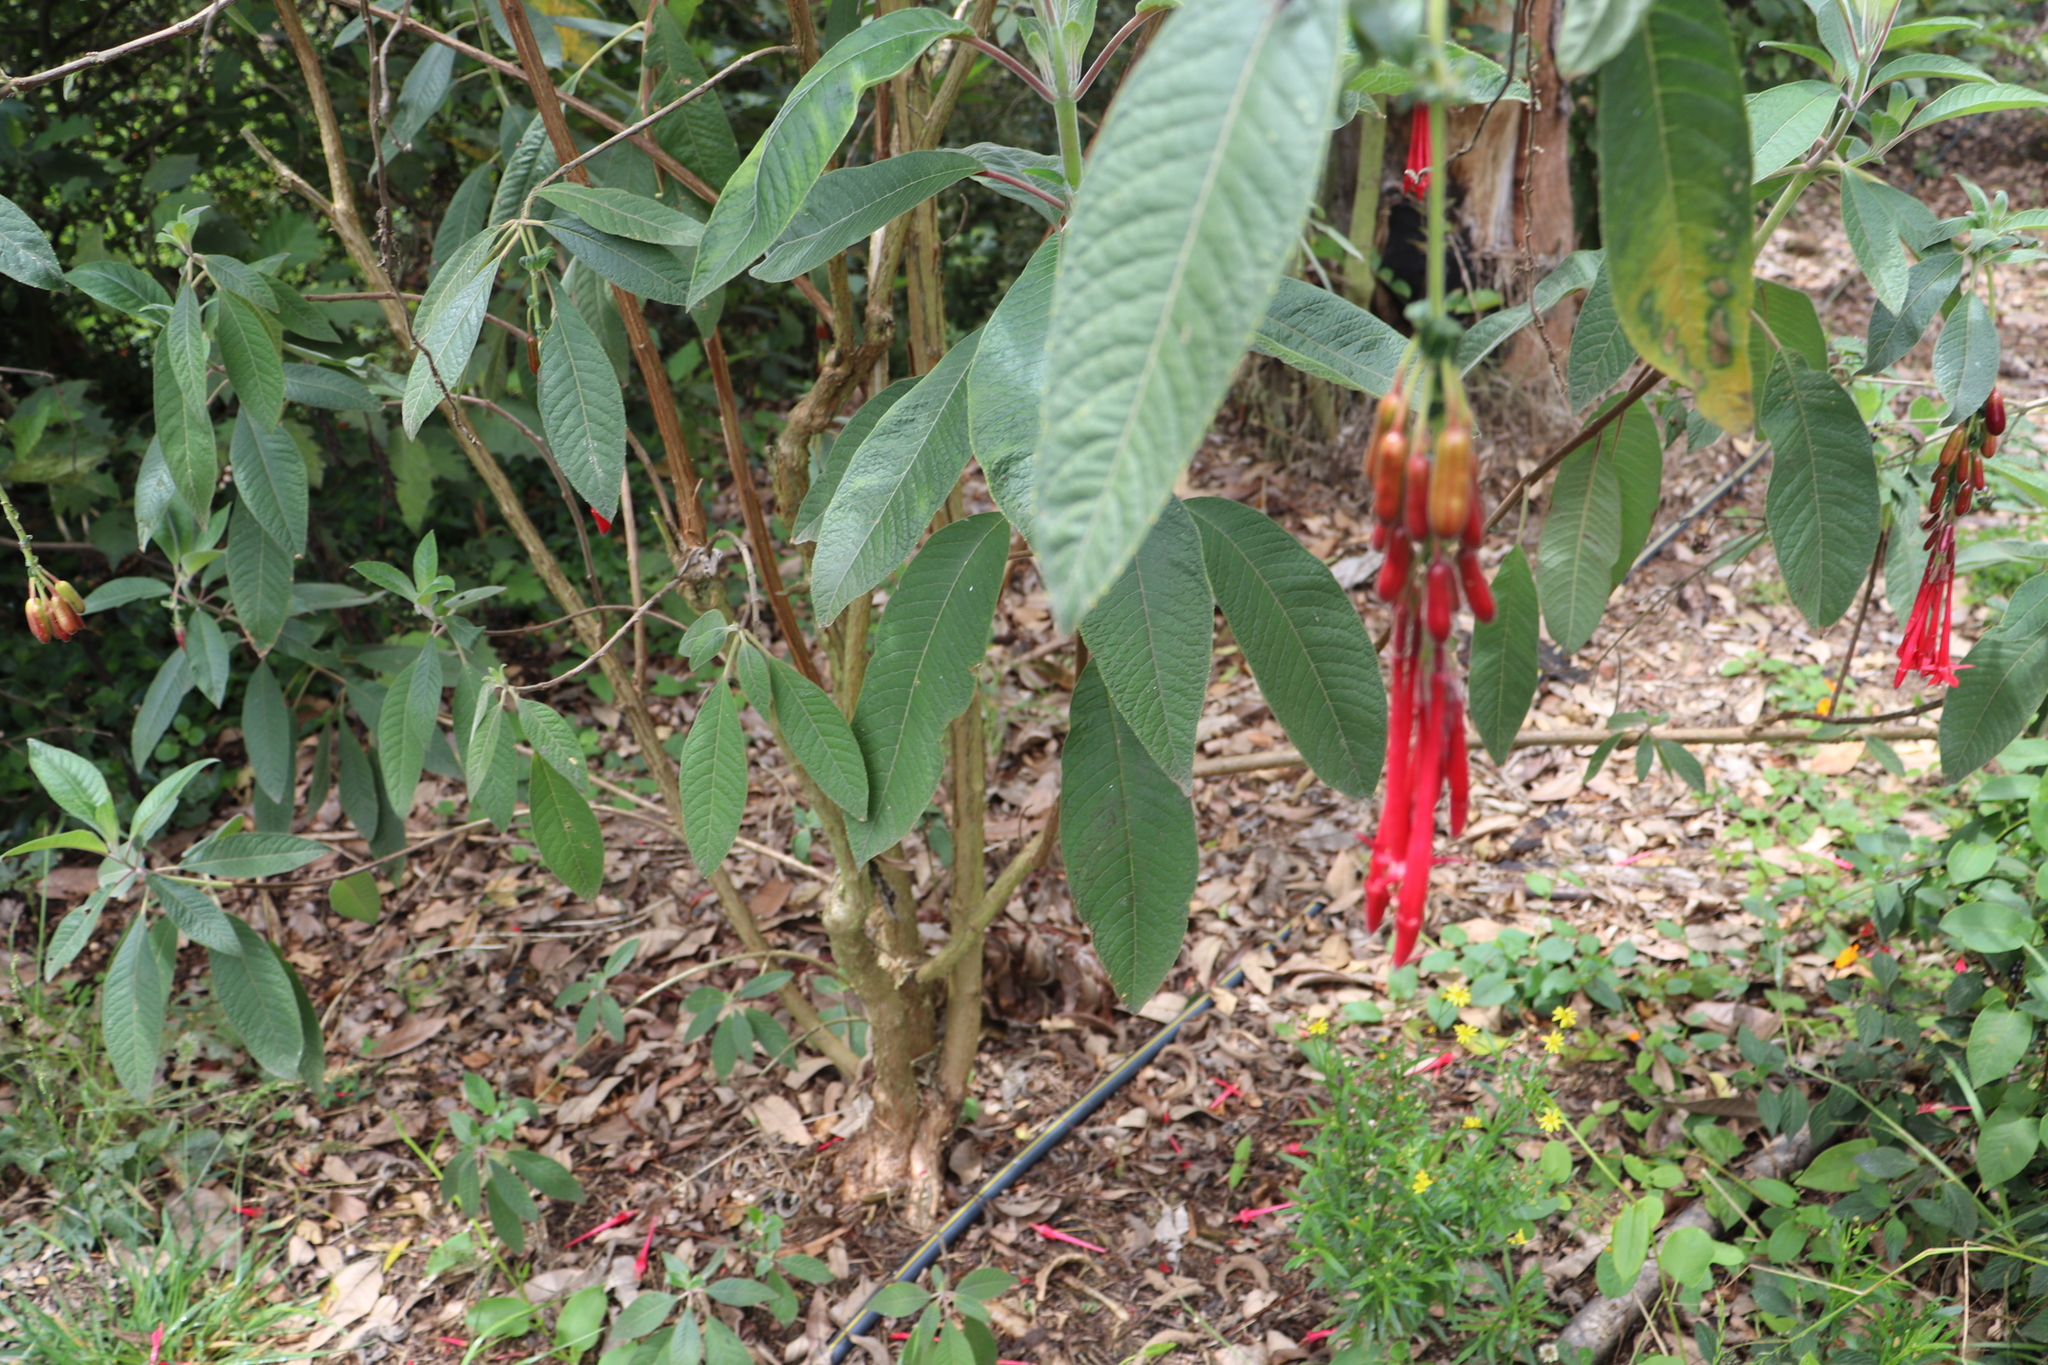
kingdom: Plantae
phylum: Tracheophyta
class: Magnoliopsida
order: Myrtales
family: Onagraceae
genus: Fuchsia
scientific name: Fuchsia boliviana
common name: Bolivian fuchsia
